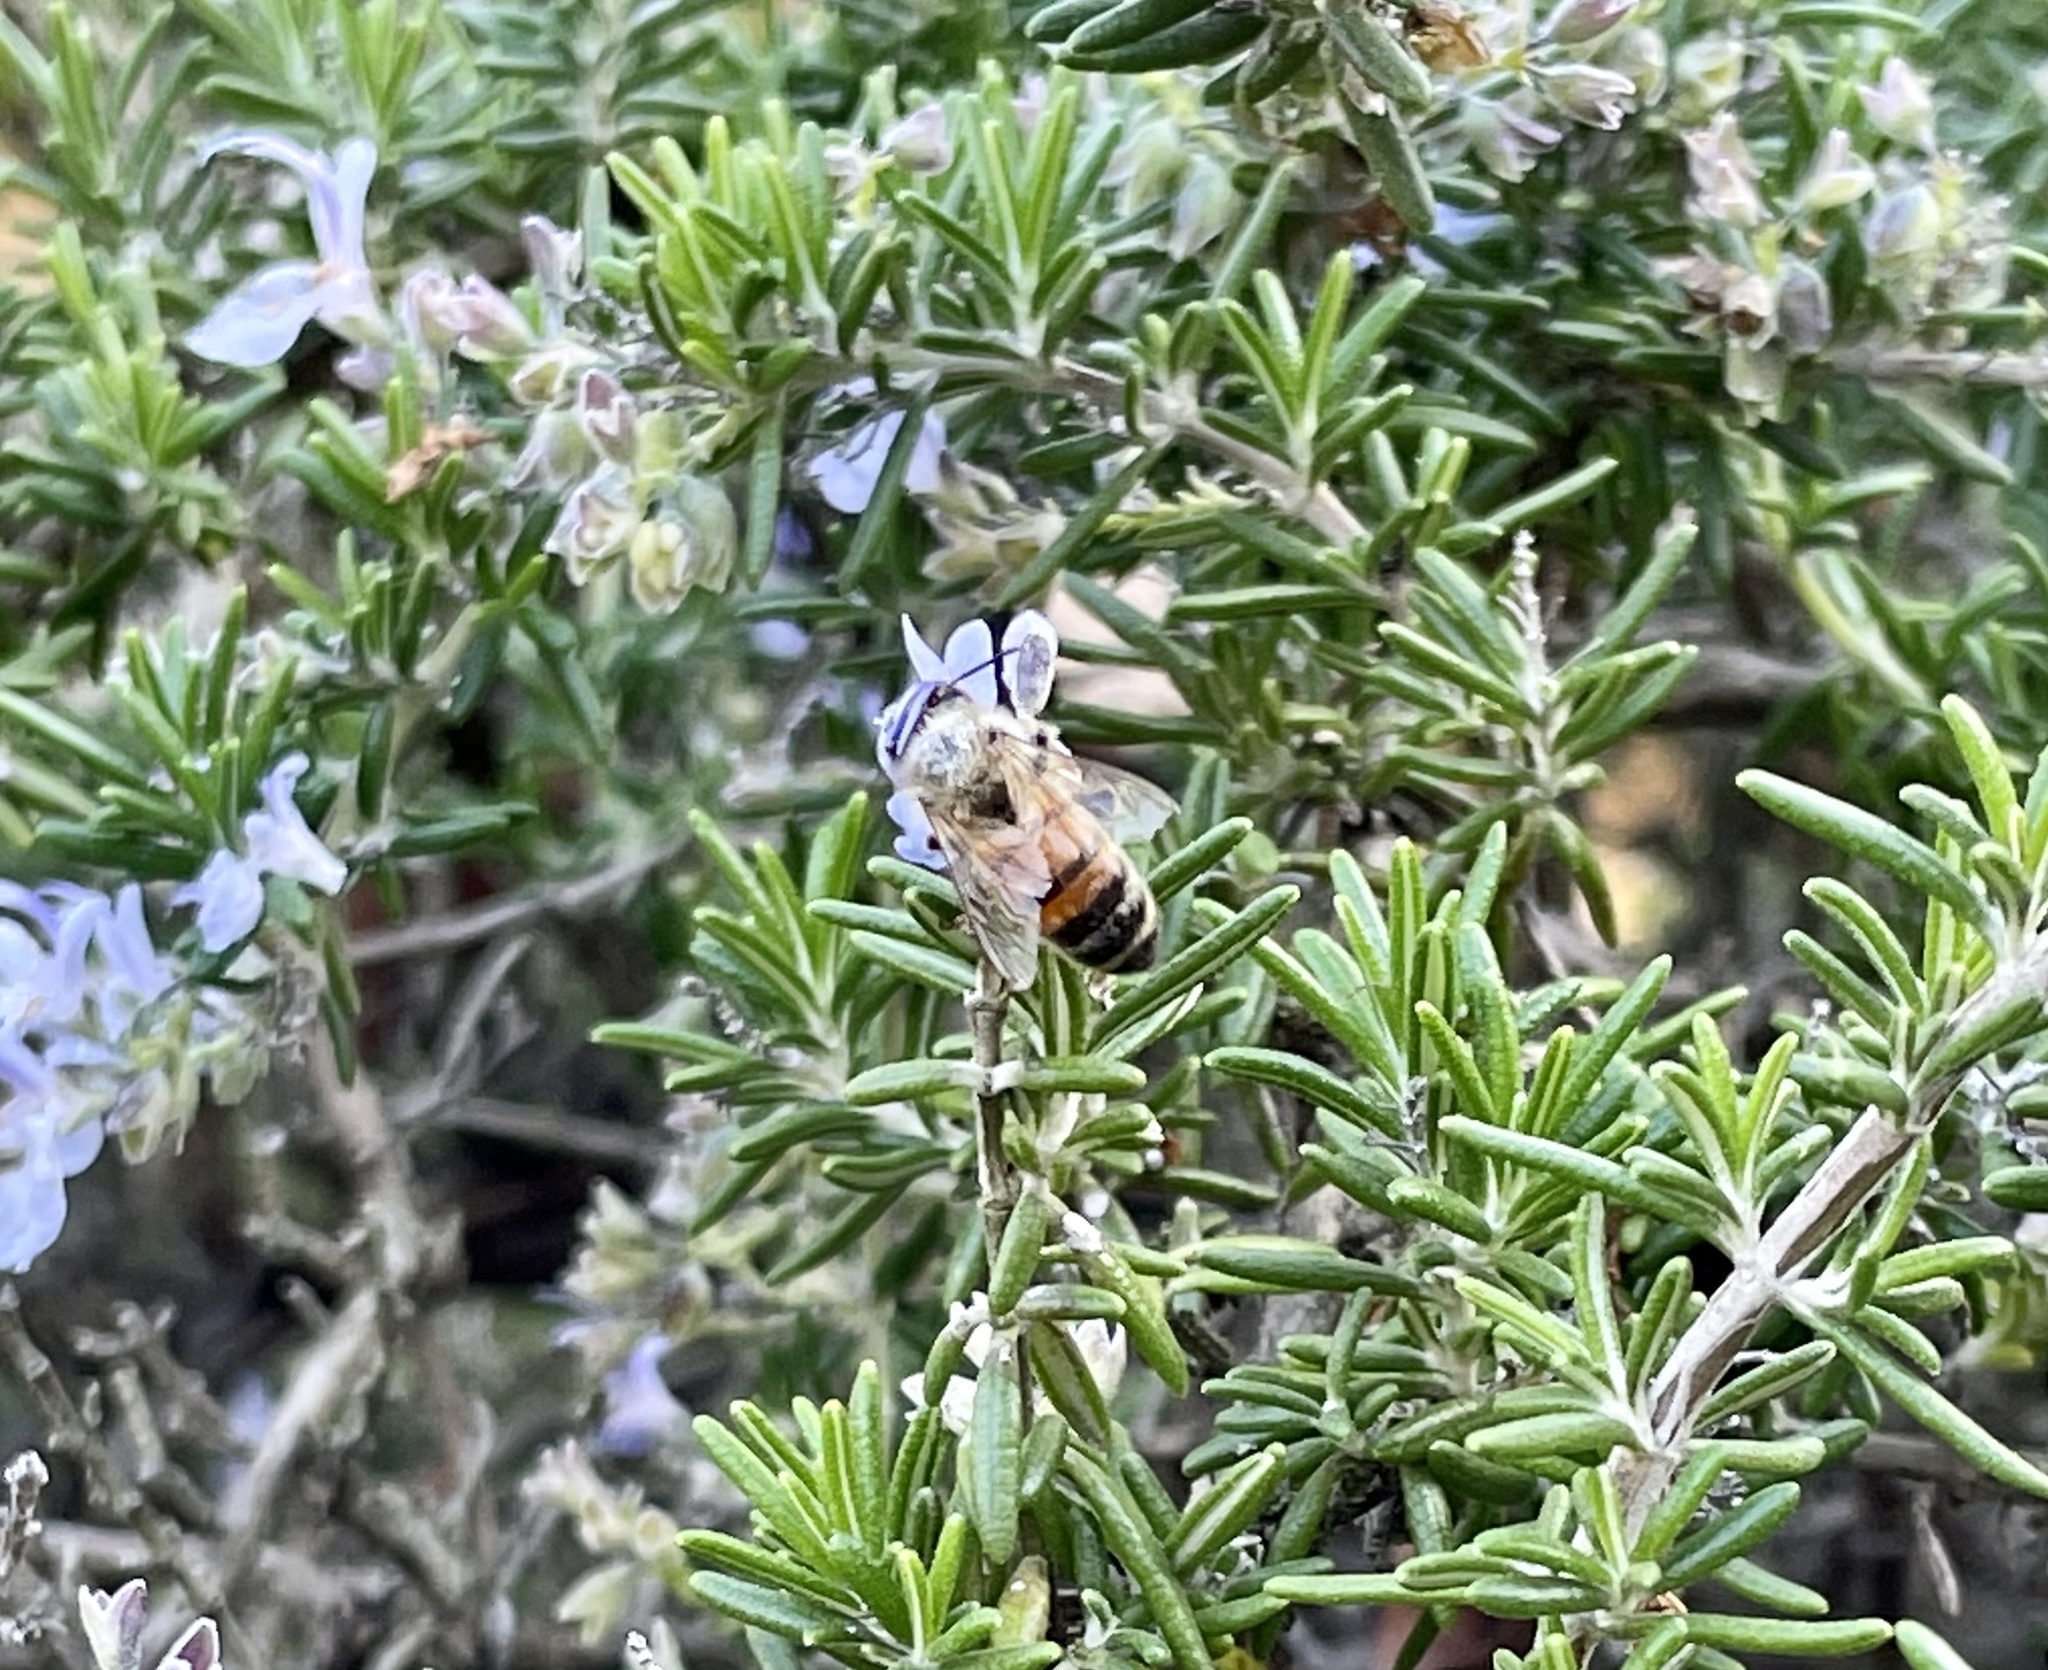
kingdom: Animalia
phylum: Arthropoda
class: Insecta
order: Hymenoptera
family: Apidae
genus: Apis
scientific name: Apis mellifera
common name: Honey bee
